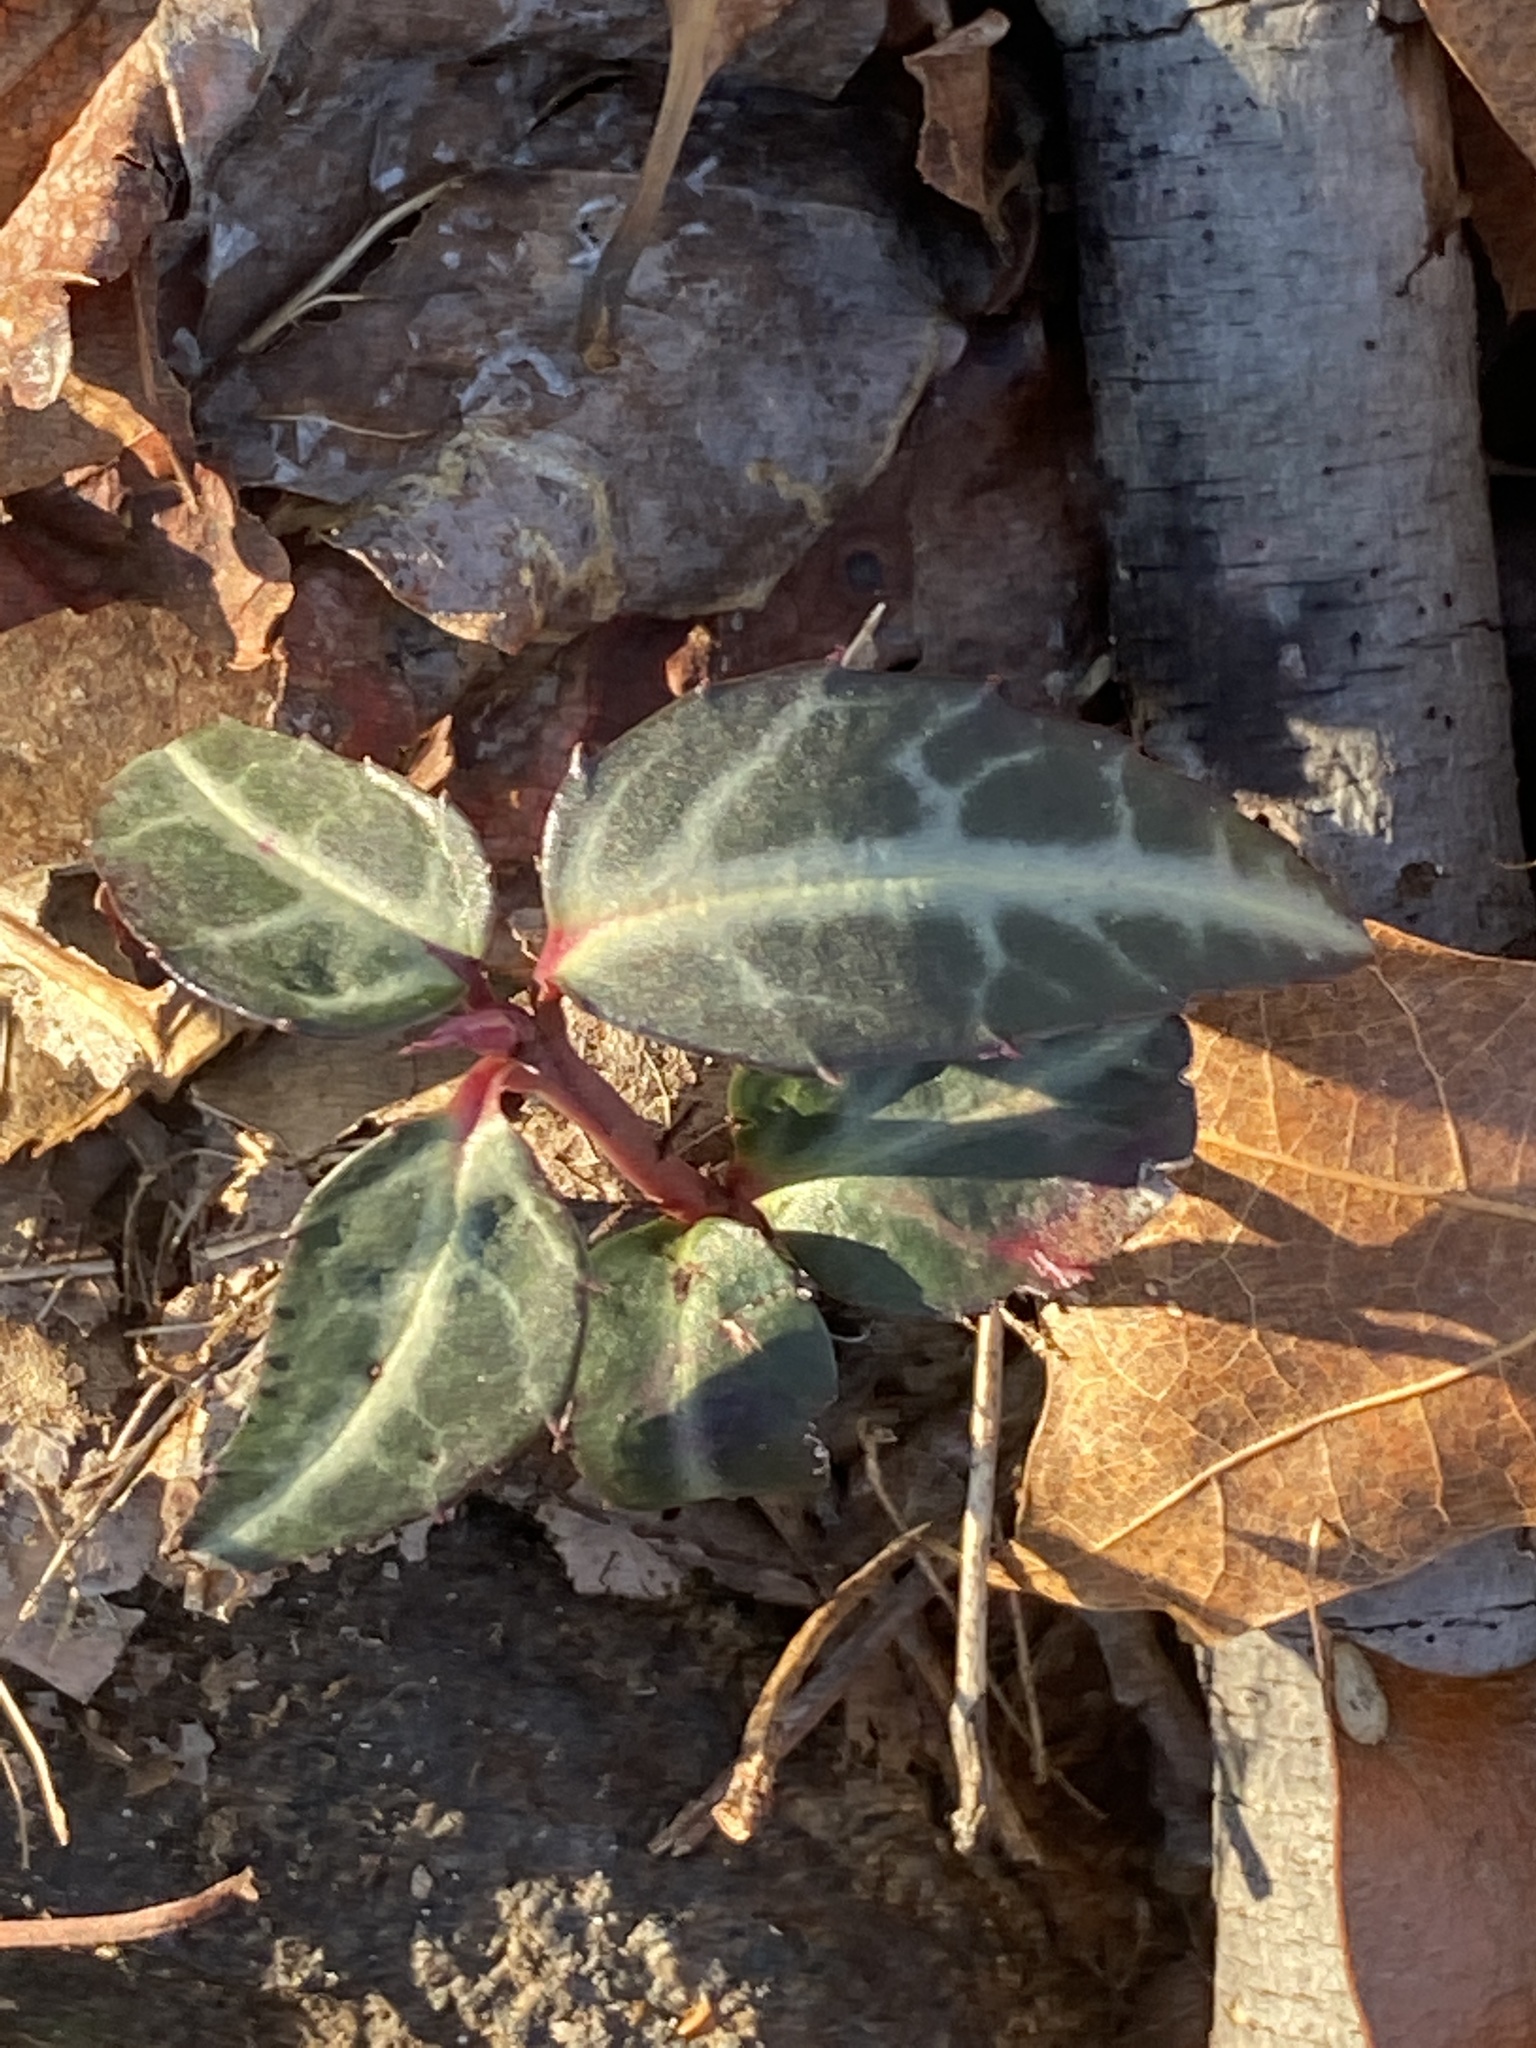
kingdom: Plantae
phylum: Tracheophyta
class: Magnoliopsida
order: Ericales
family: Ericaceae
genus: Chimaphila
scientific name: Chimaphila maculata
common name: Spotted pipsissewa
